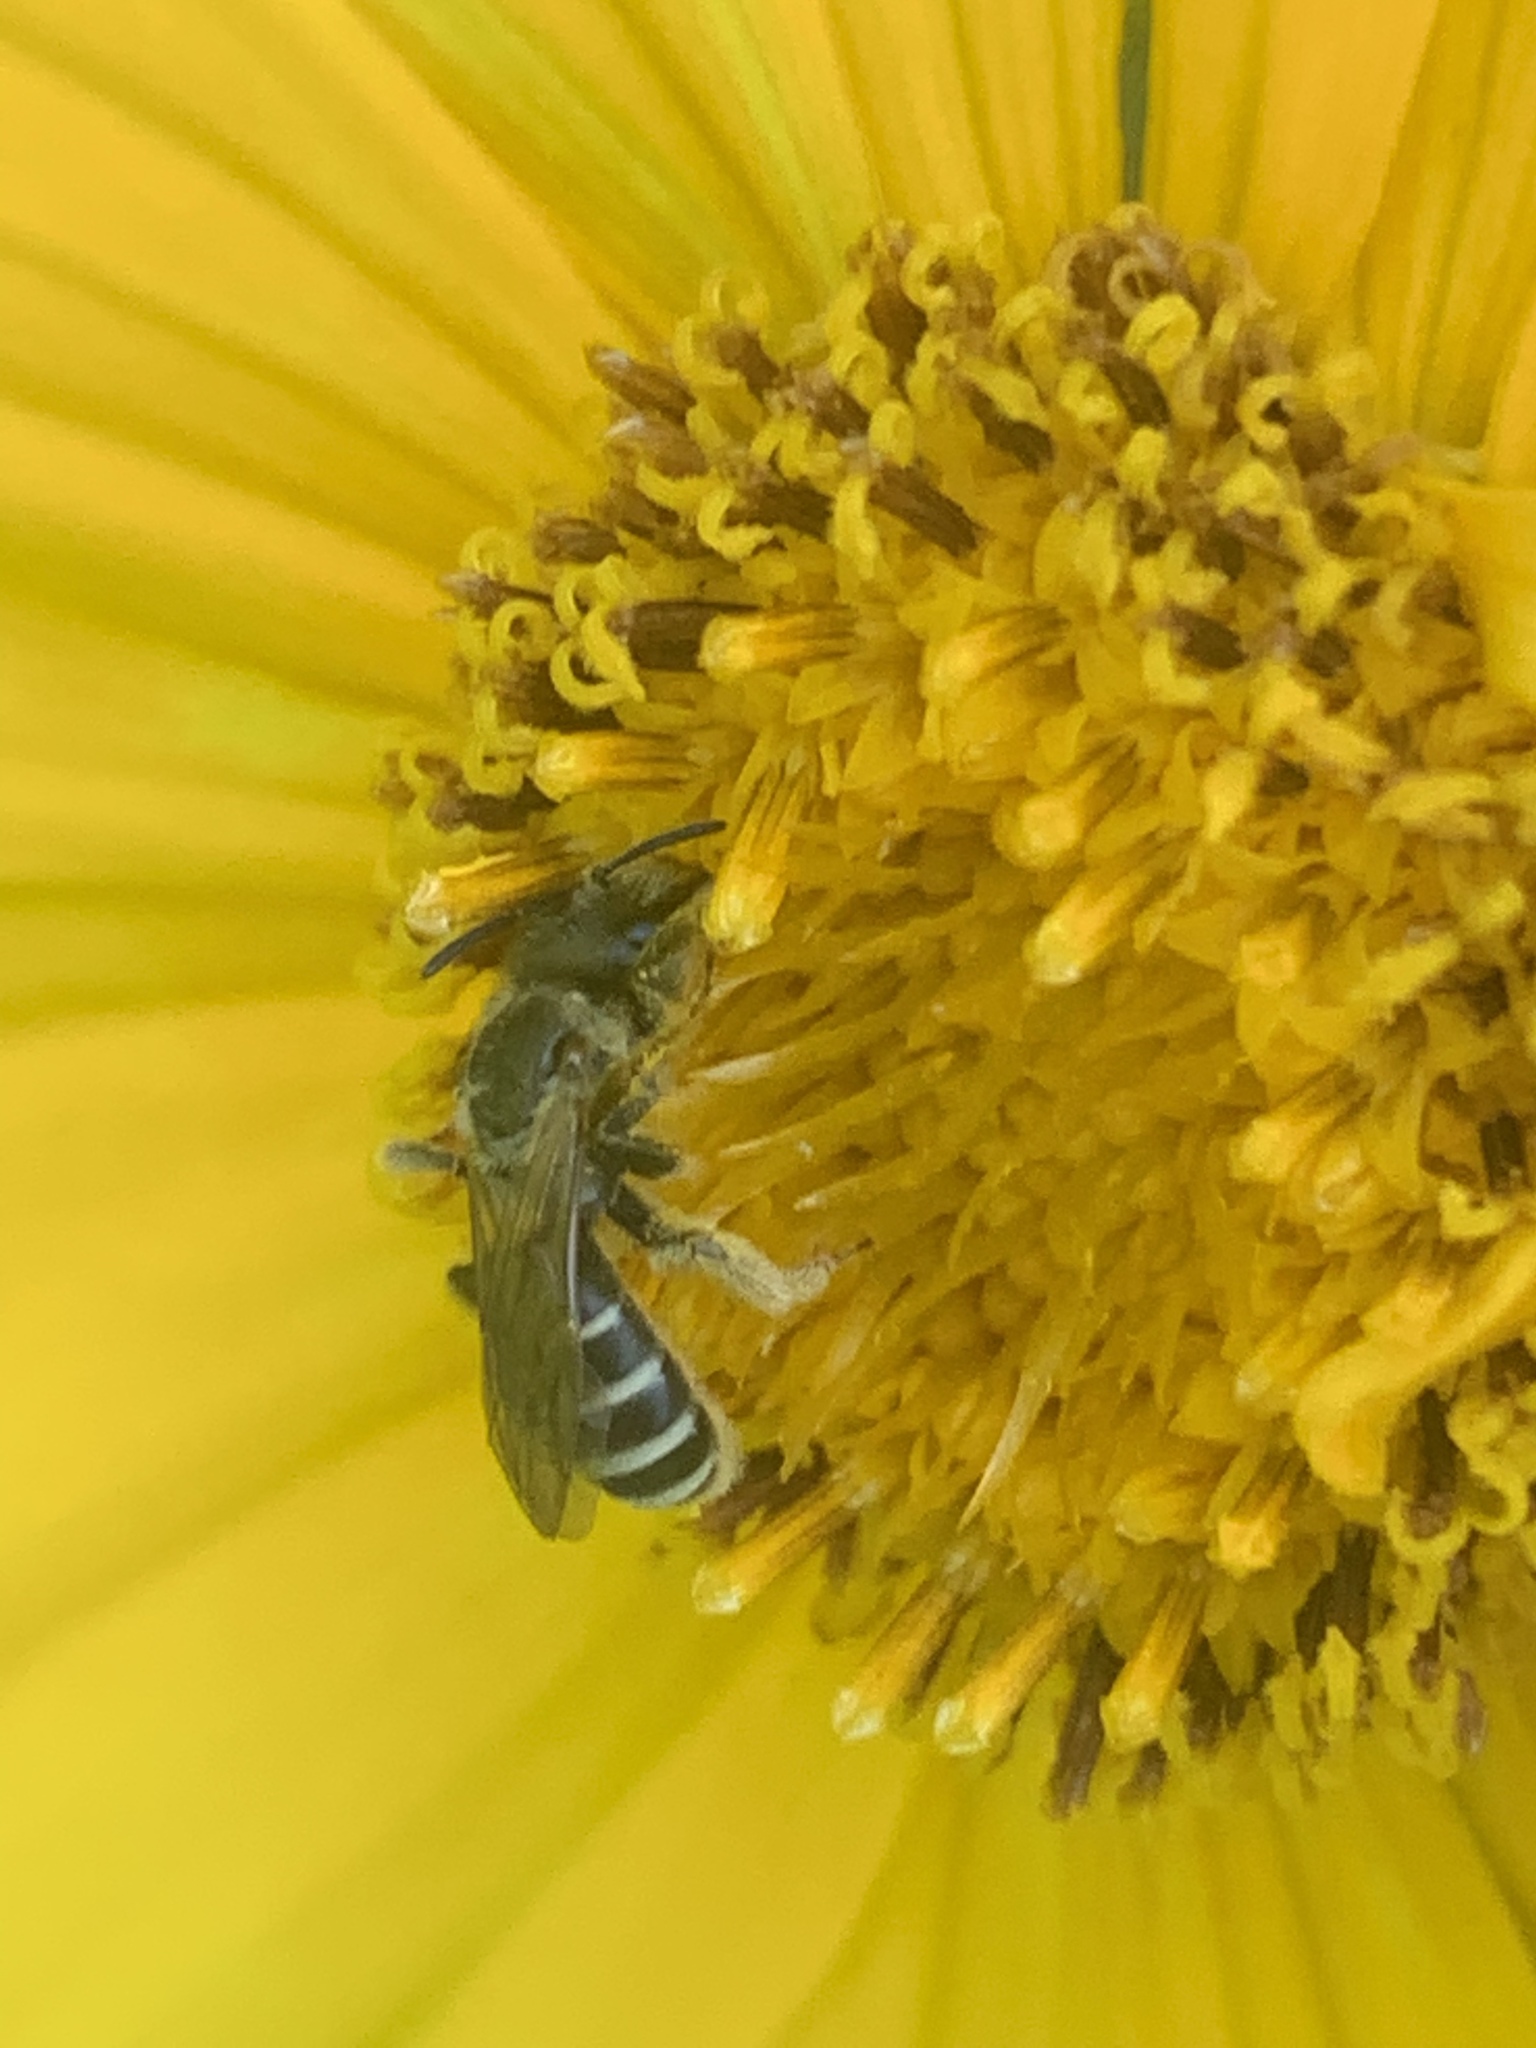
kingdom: Animalia
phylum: Arthropoda
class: Insecta
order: Hymenoptera
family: Halictidae
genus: Halictus
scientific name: Halictus ligatus
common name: Ligated furrow bee
